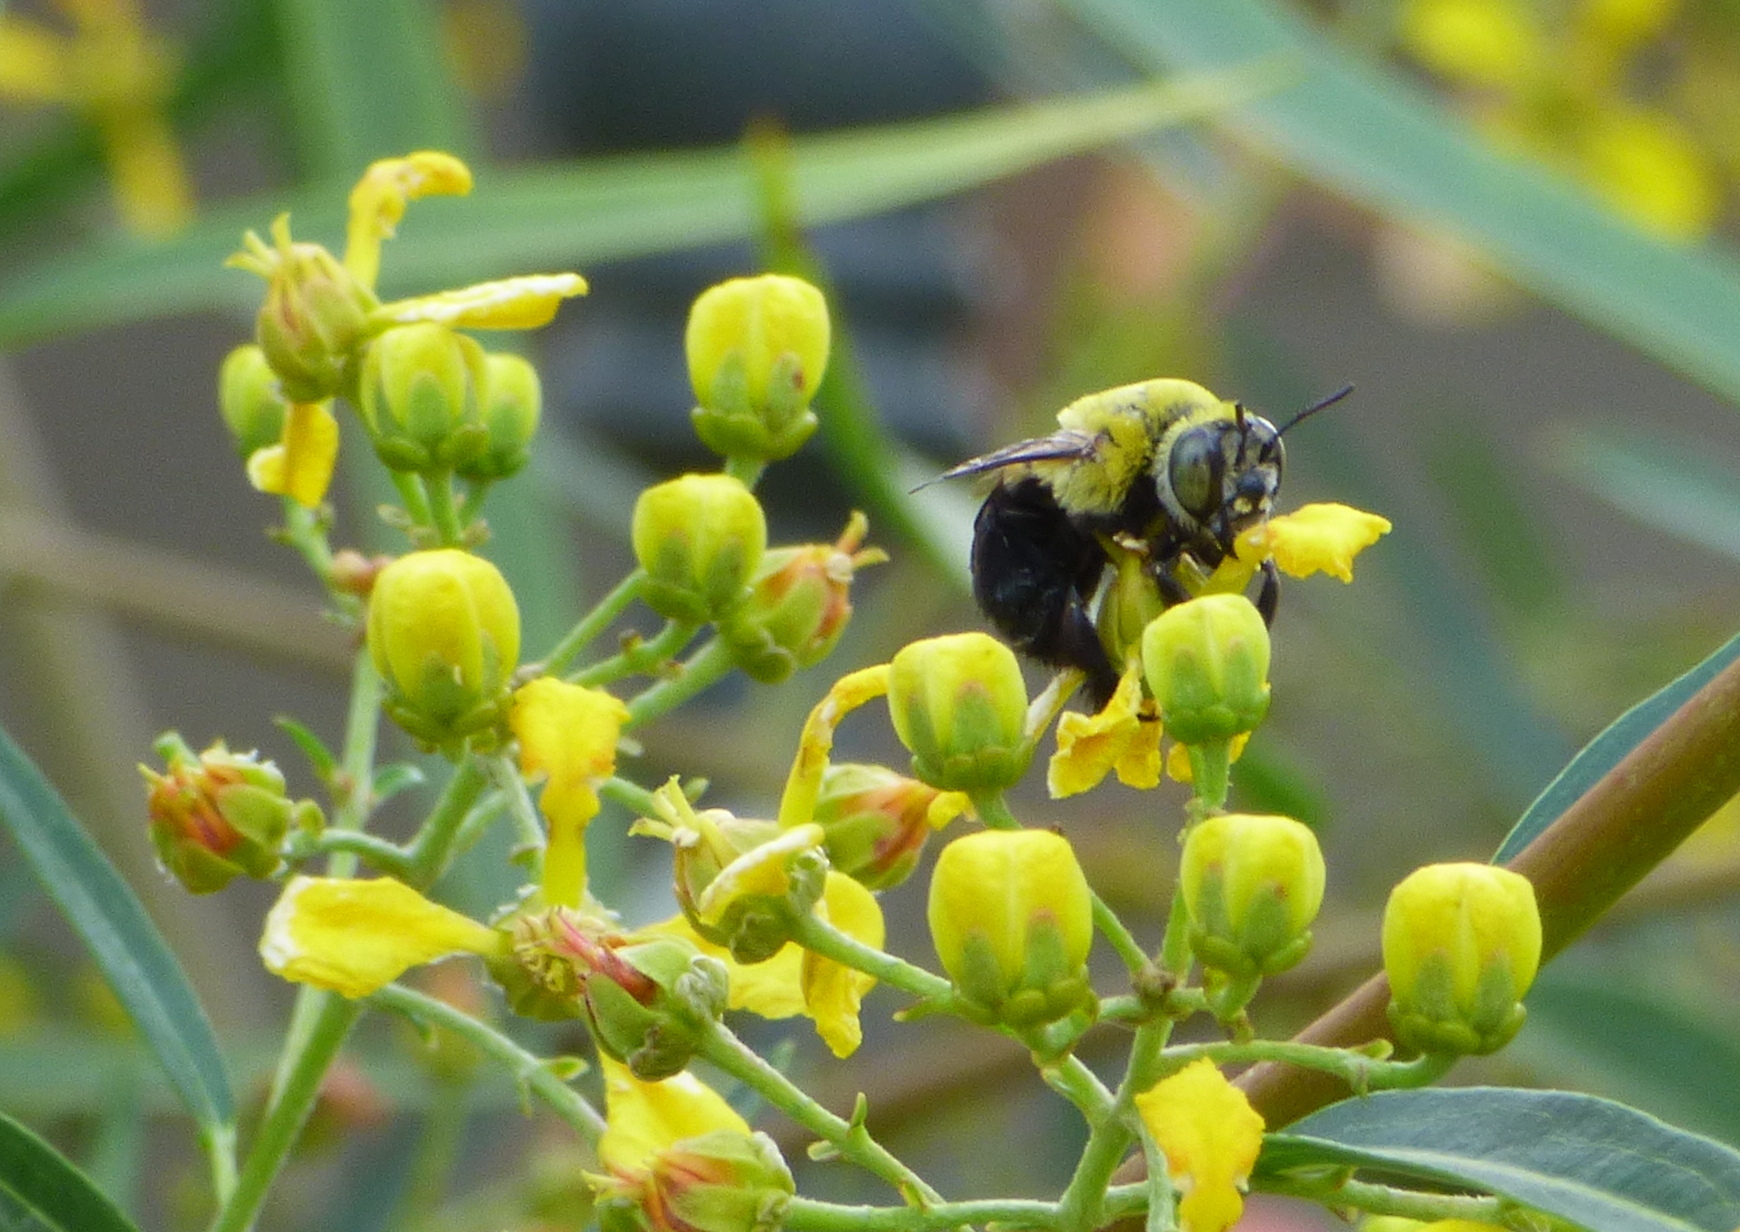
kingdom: Animalia
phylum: Arthropoda
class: Insecta
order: Hymenoptera
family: Apidae
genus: Centris
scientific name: Centris nigriventris
